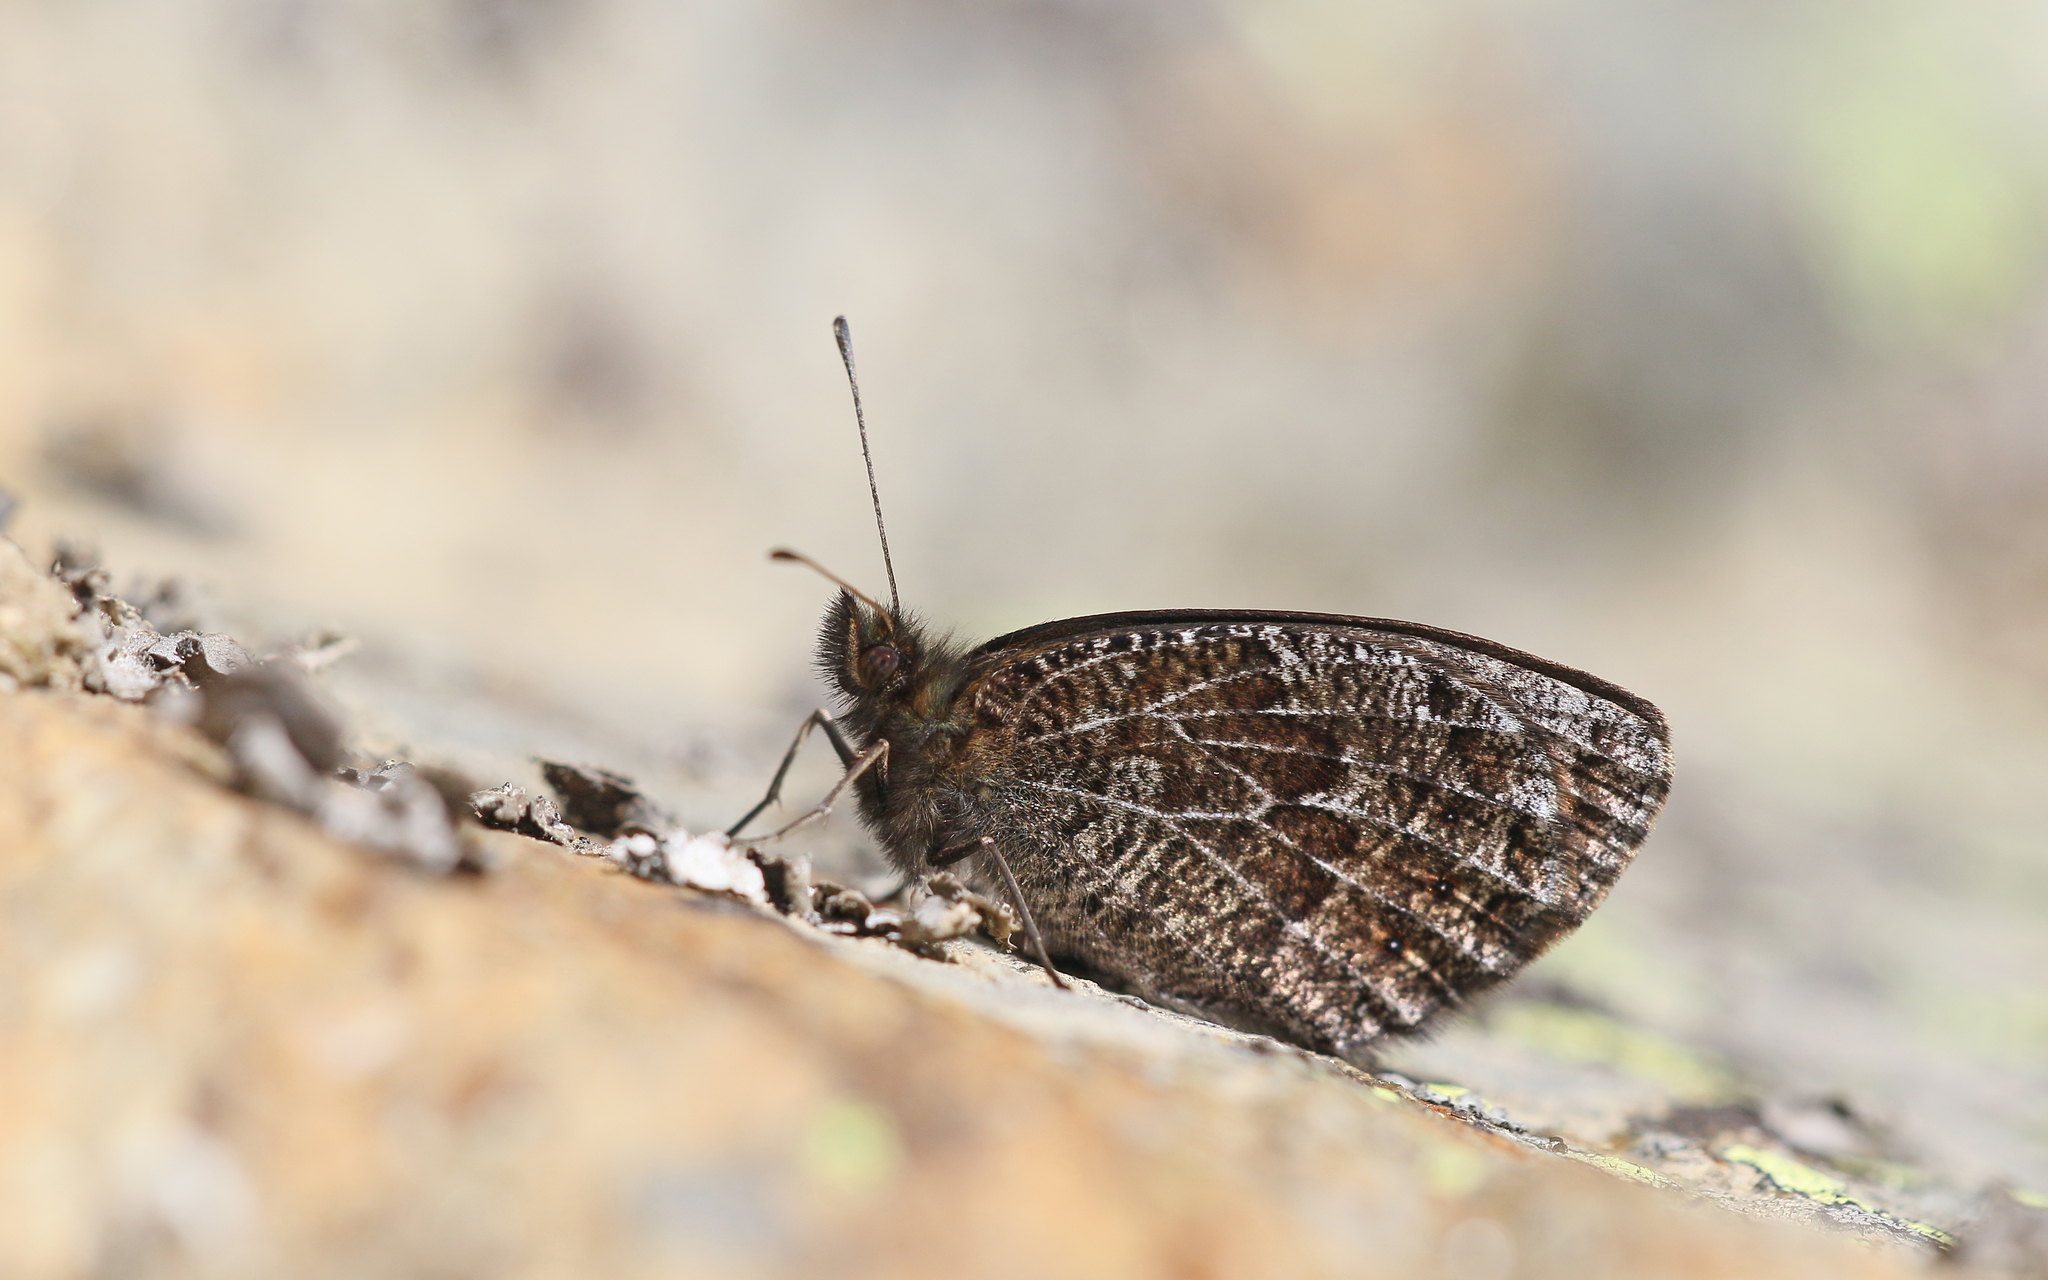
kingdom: Animalia
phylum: Arthropoda
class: Insecta
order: Lepidoptera
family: Nymphalidae
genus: Erebia
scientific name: Erebia montanus
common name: Marbled ringlet
